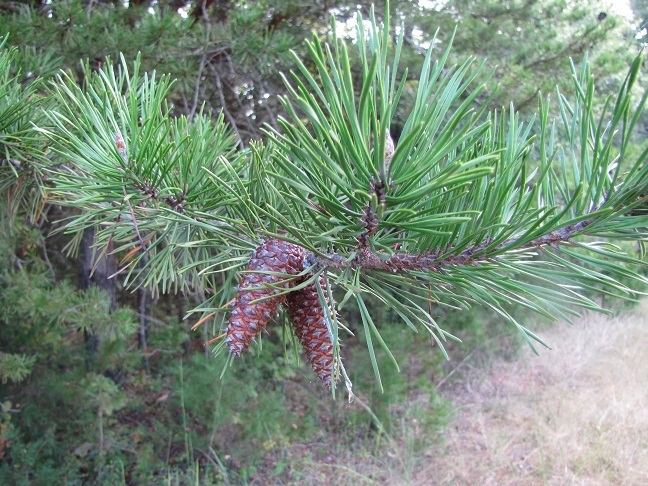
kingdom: Plantae
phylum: Tracheophyta
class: Pinopsida
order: Pinales
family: Pinaceae
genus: Pinus
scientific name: Pinus virginiana
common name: Scrub pine
